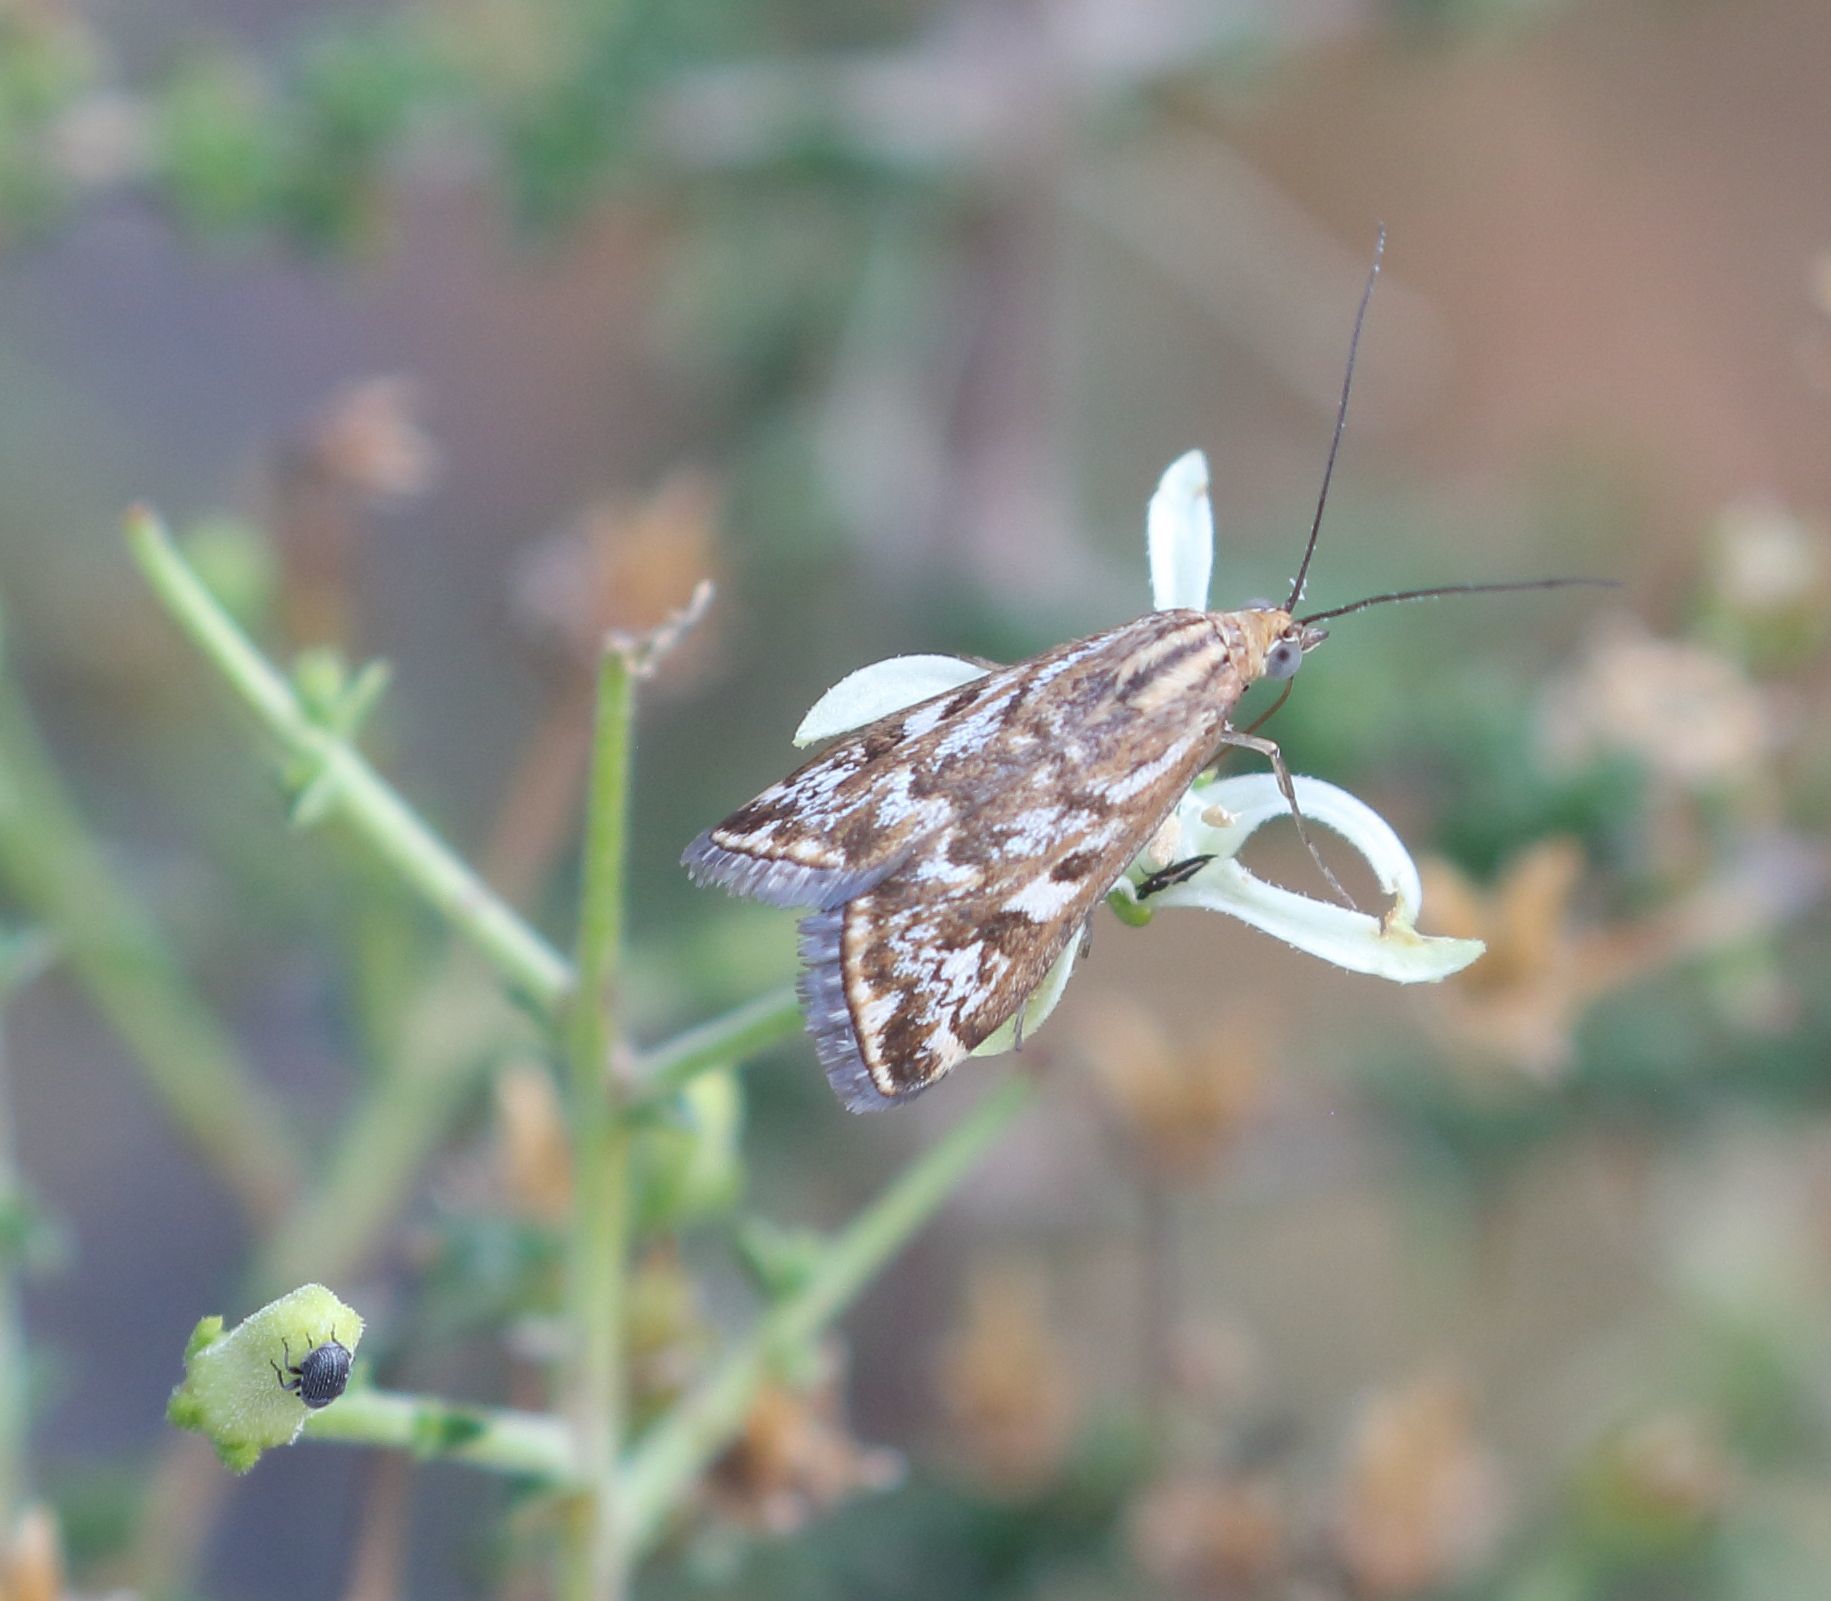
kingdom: Animalia
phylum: Arthropoda
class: Insecta
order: Lepidoptera
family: Crambidae
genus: Loxostege
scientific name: Loxostege frustalis
